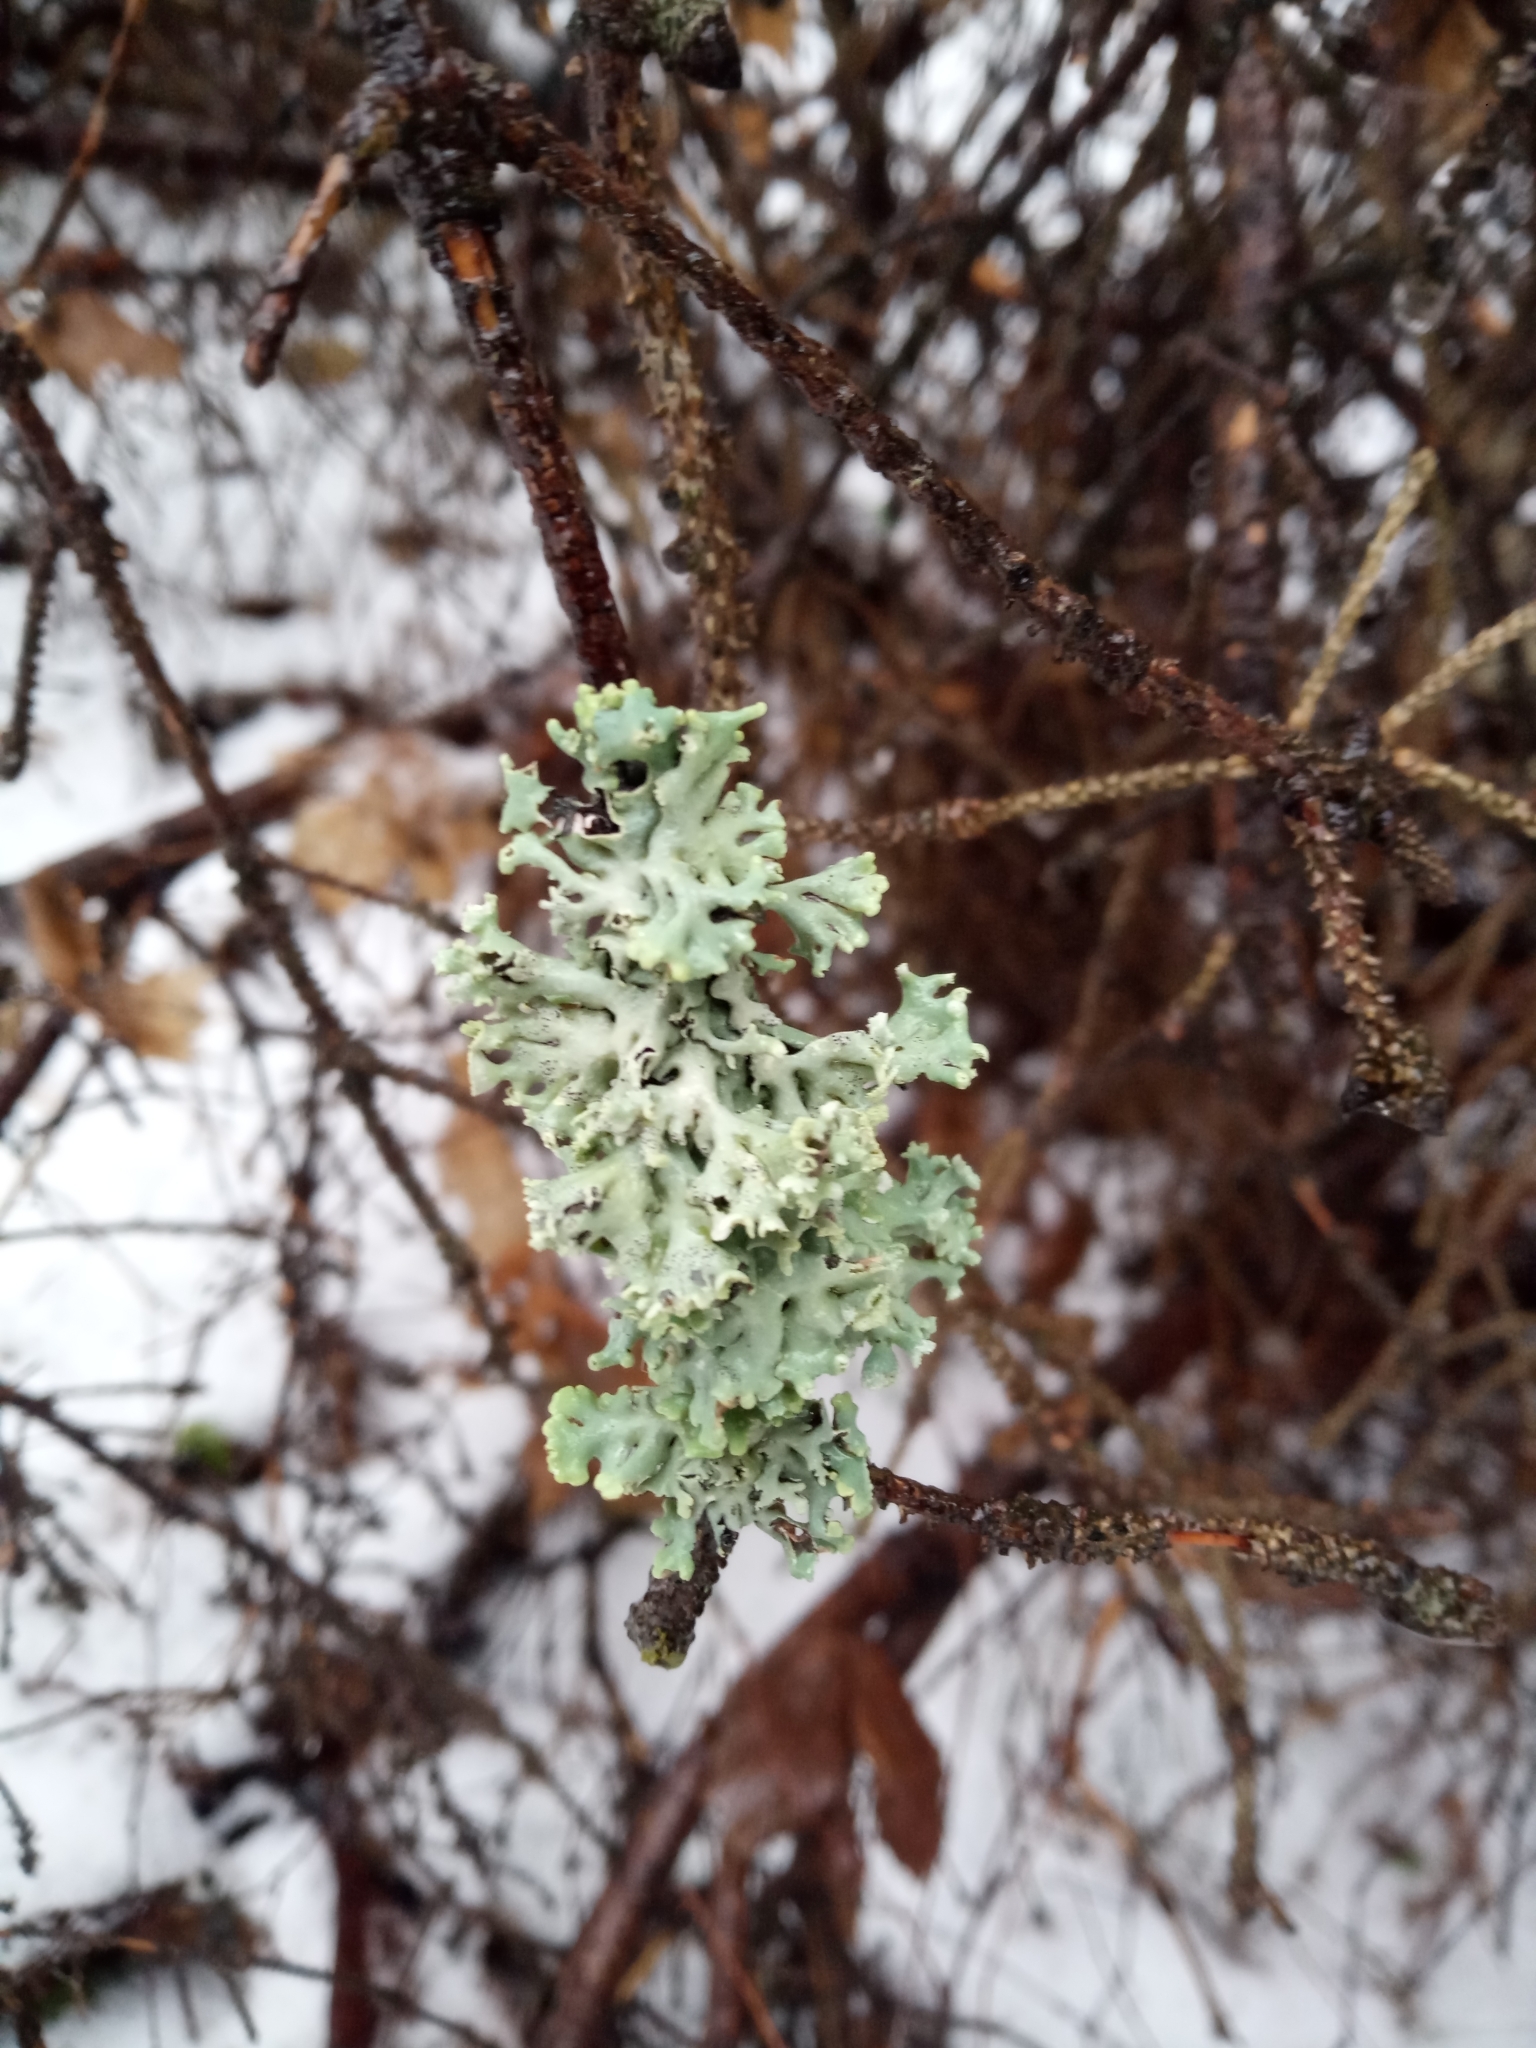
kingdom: Fungi
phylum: Ascomycota
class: Lecanoromycetes
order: Lecanorales
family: Parmeliaceae
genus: Hypogymnia
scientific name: Hypogymnia physodes
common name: Dark crottle
